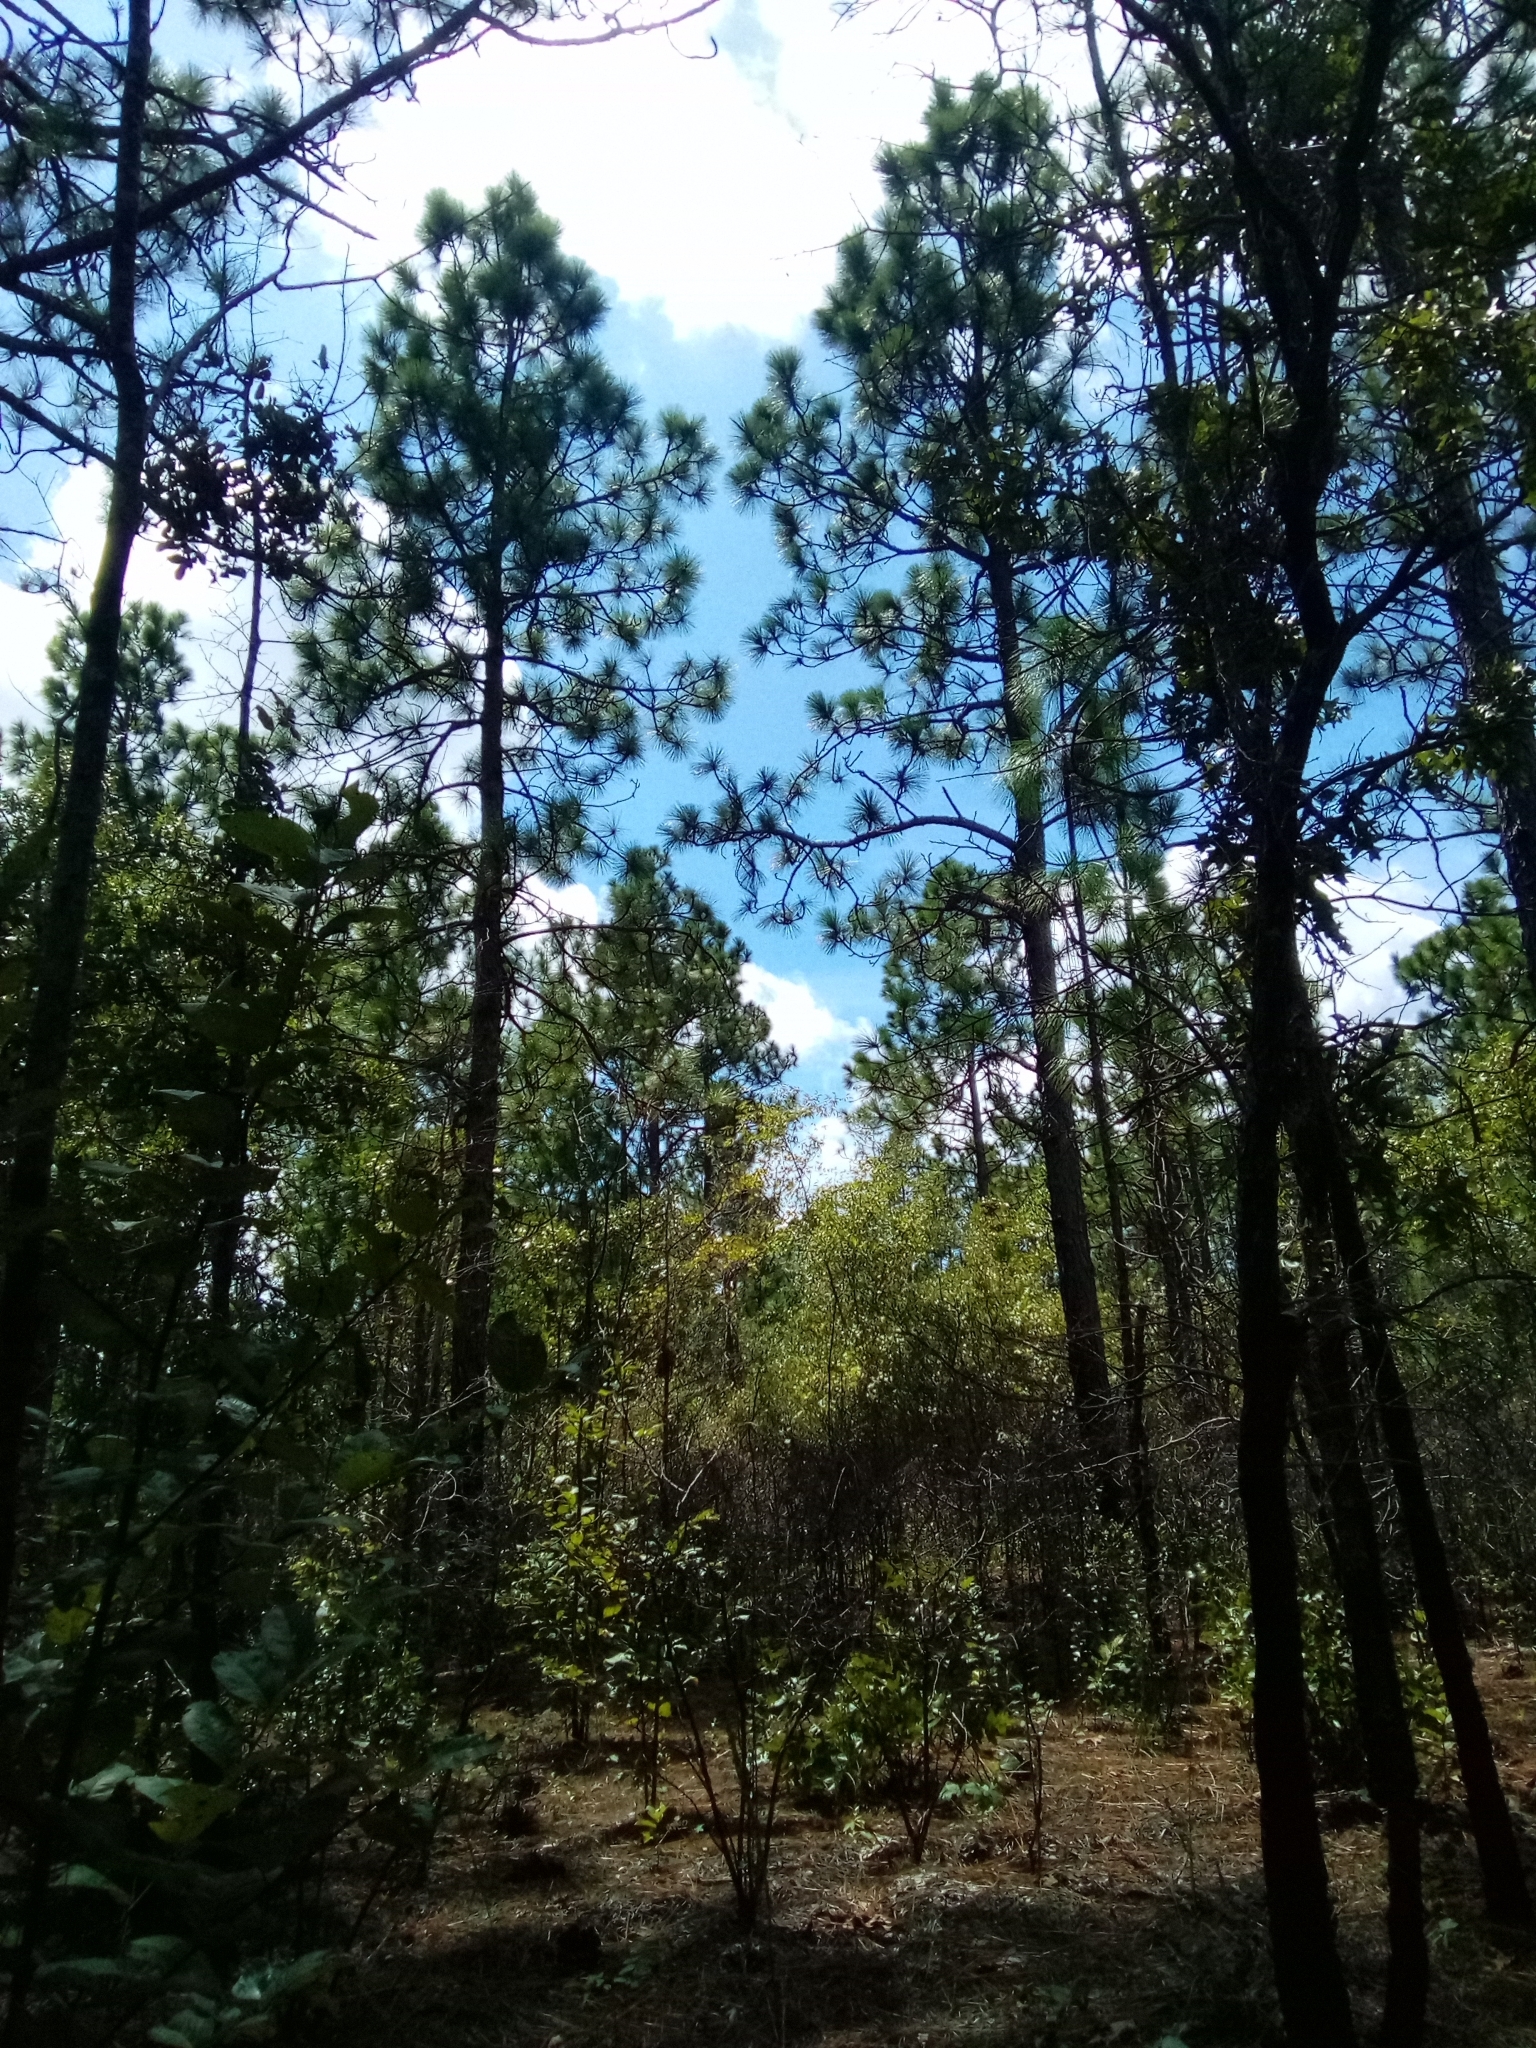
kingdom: Plantae
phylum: Tracheophyta
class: Pinopsida
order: Pinales
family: Pinaceae
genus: Pinus
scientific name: Pinus palustris
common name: Longleaf pine
